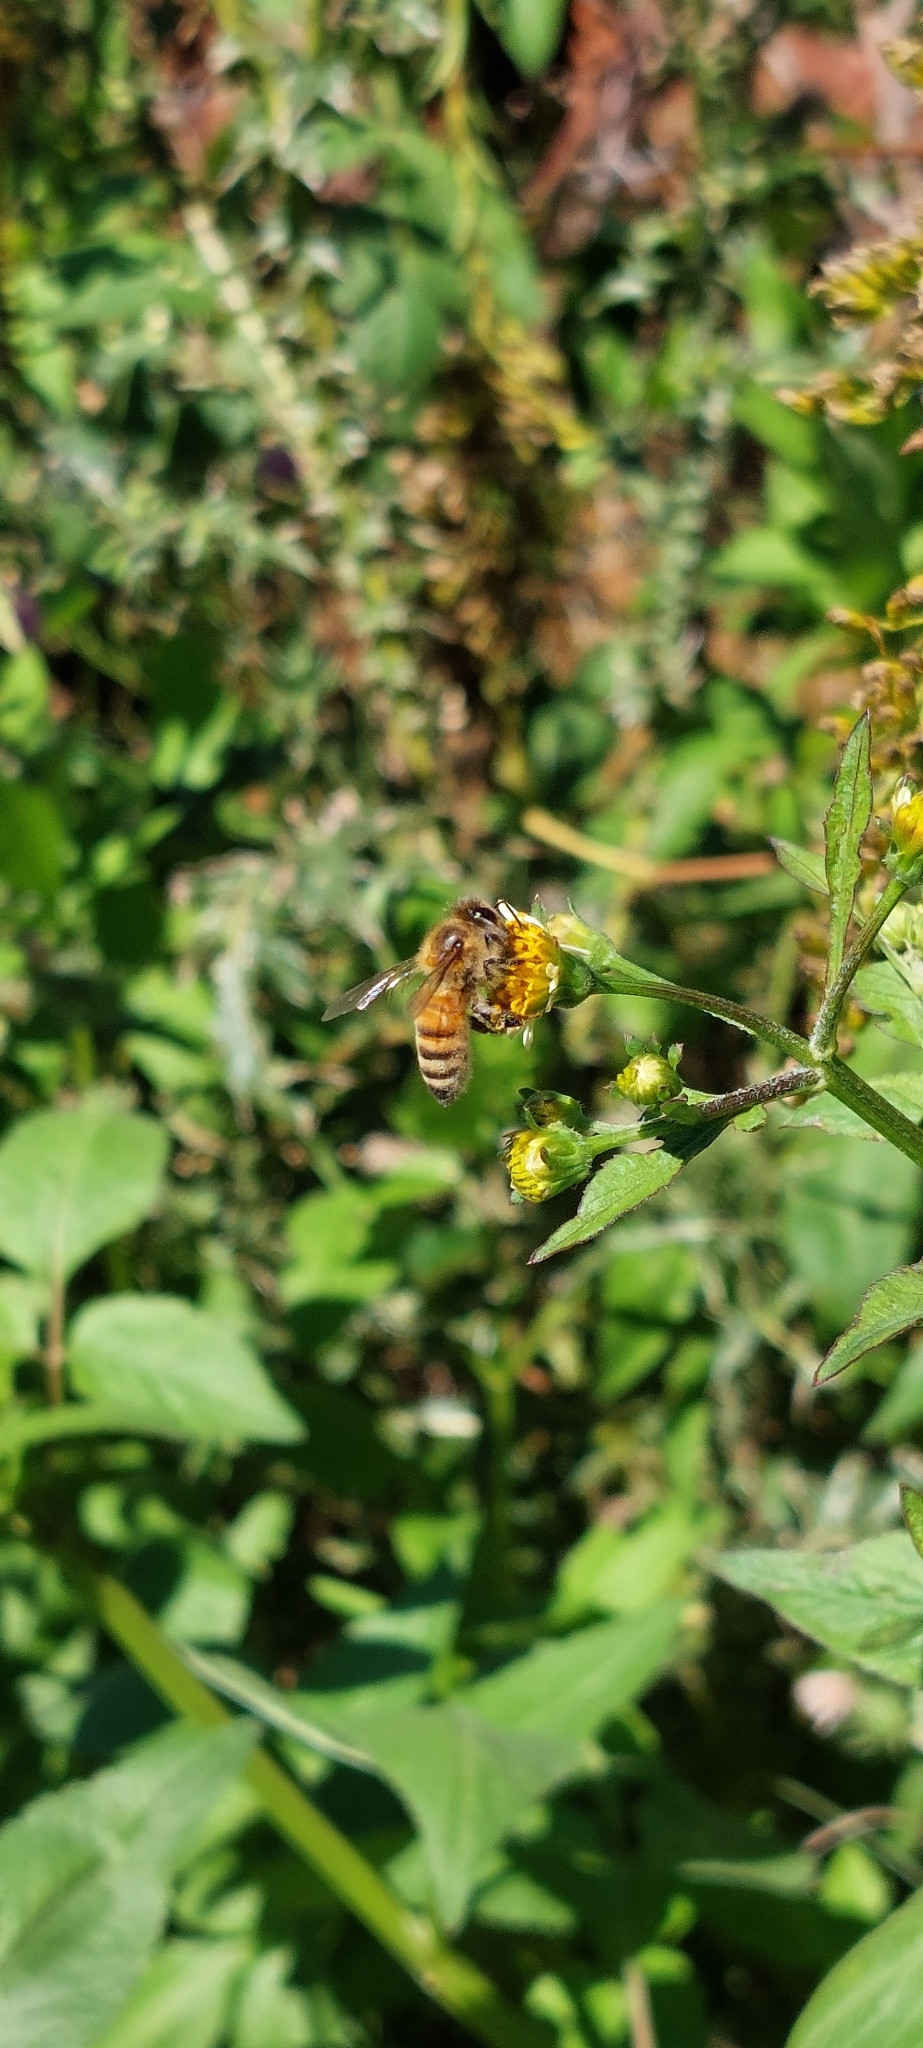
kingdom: Animalia
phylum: Arthropoda
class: Insecta
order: Hymenoptera
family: Apidae
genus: Apis
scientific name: Apis mellifera
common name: Honey bee
